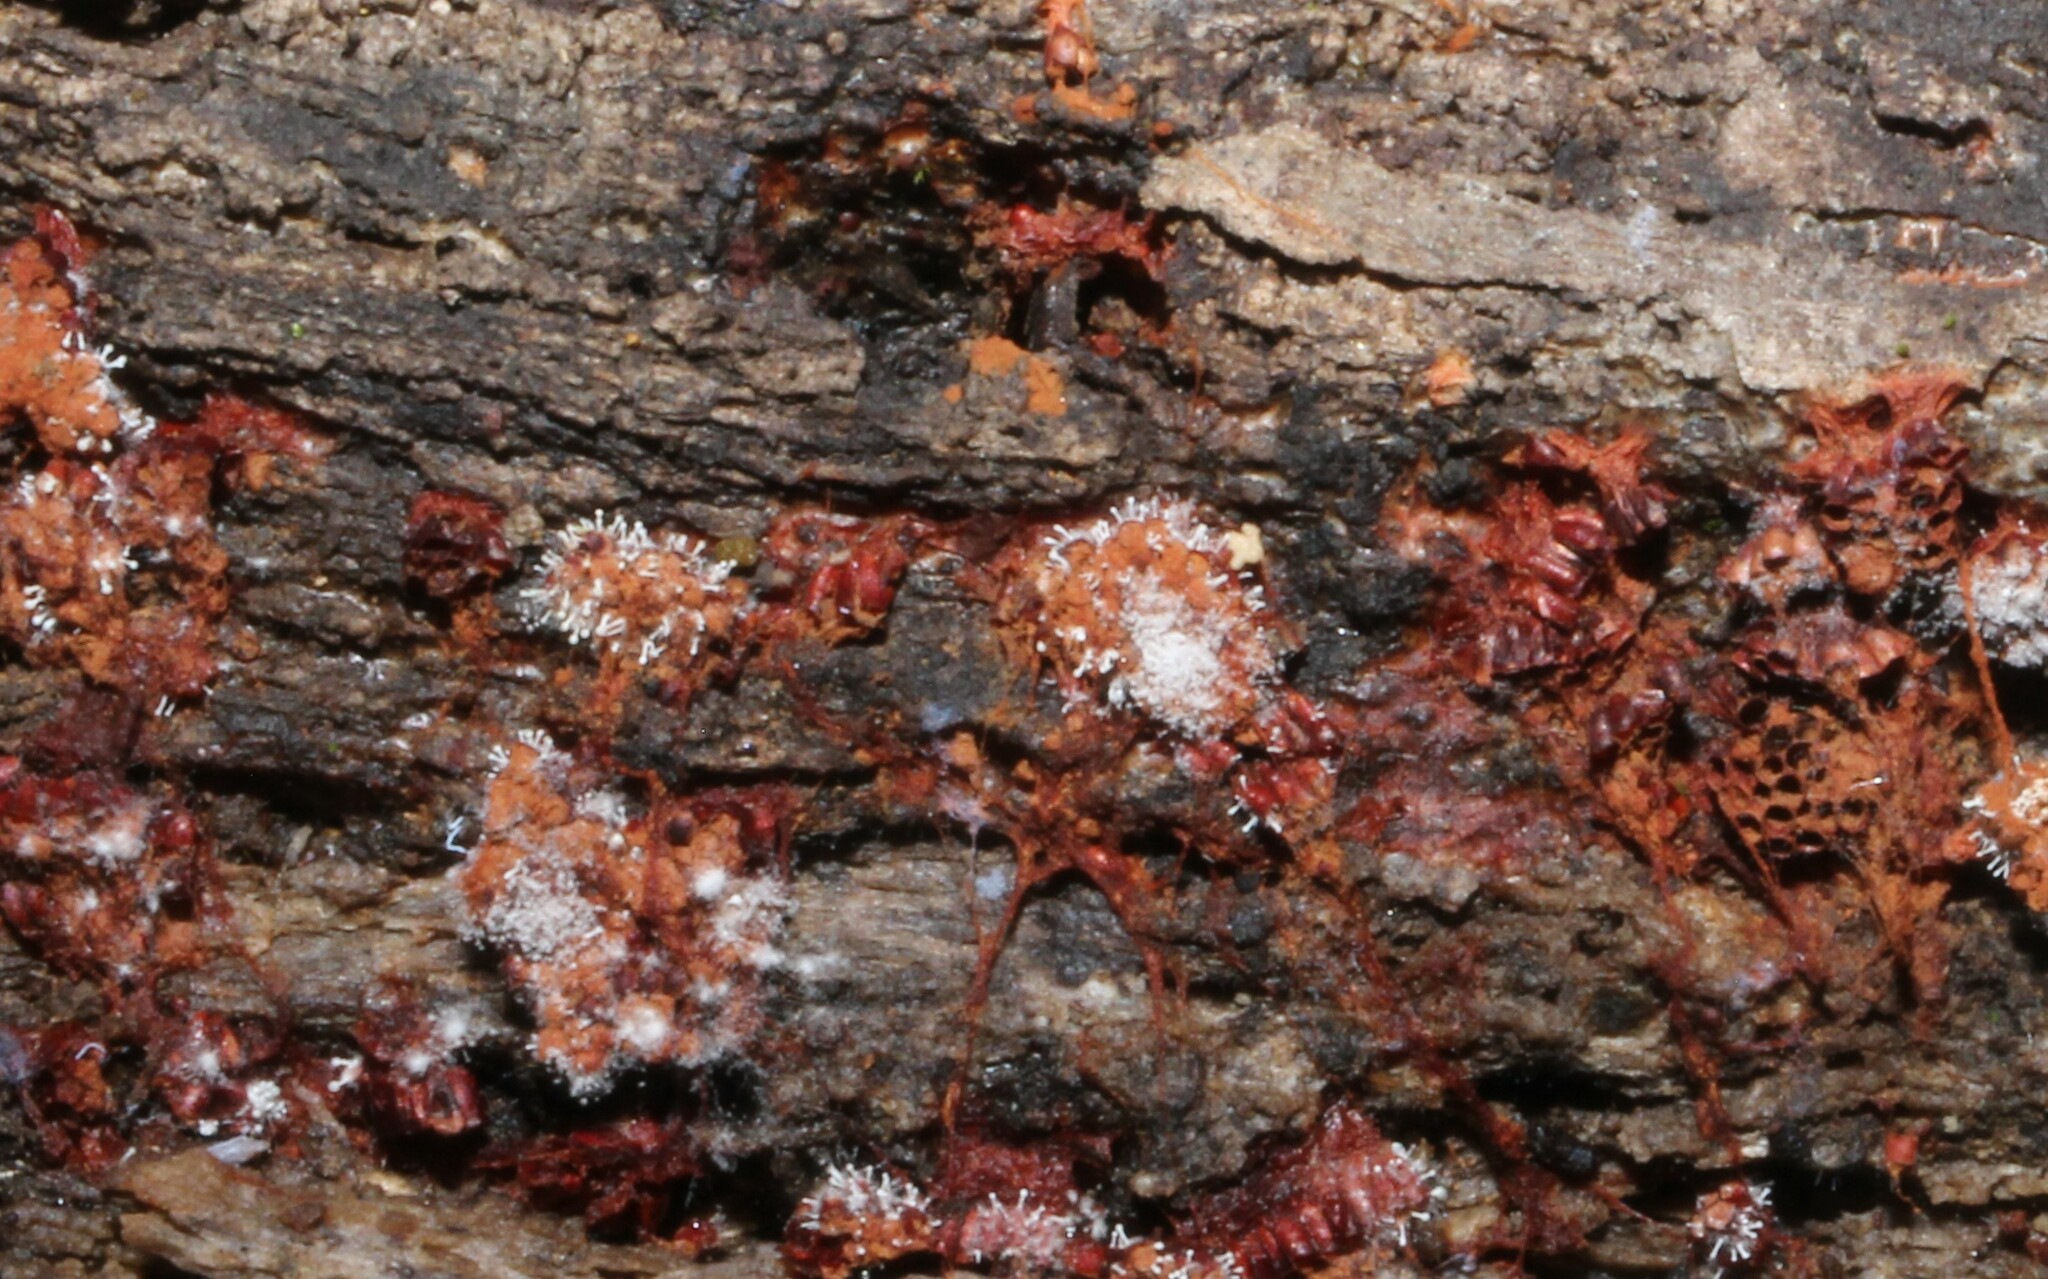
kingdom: Fungi
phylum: Ascomycota
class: Sordariomycetes
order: Hypocreales
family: Ophiocordycipitaceae
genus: Polycephalomyces
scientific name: Polycephalomyces tomentosus
